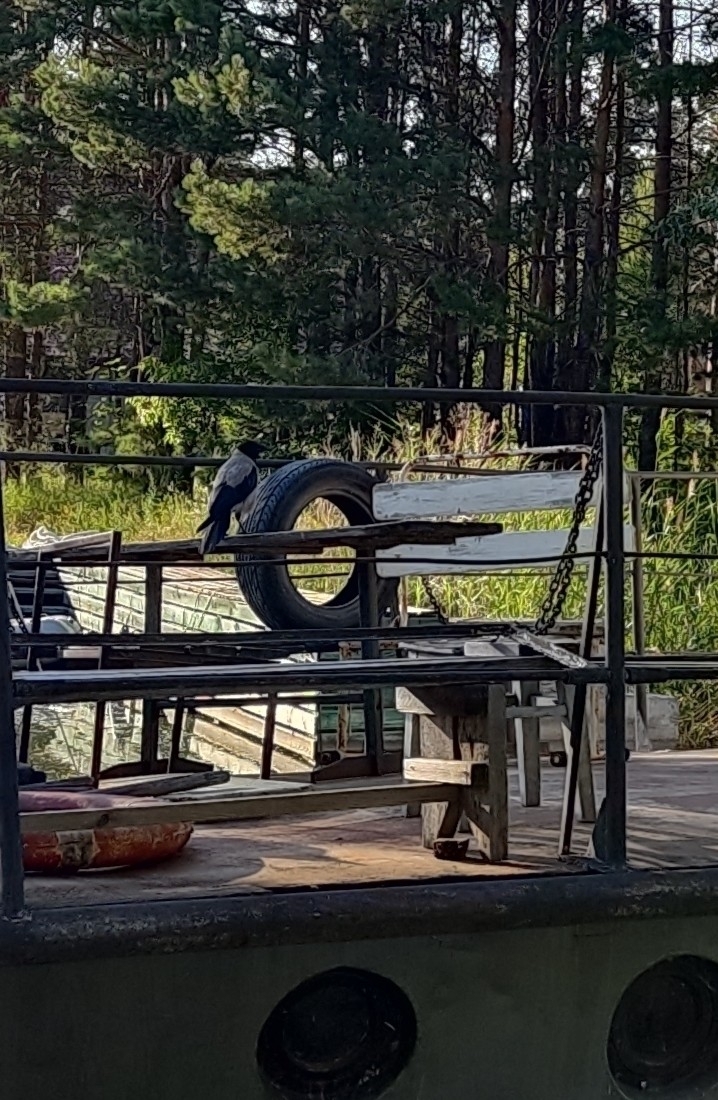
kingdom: Animalia
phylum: Chordata
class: Aves
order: Passeriformes
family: Corvidae
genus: Corvus
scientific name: Corvus cornix
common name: Hooded crow
